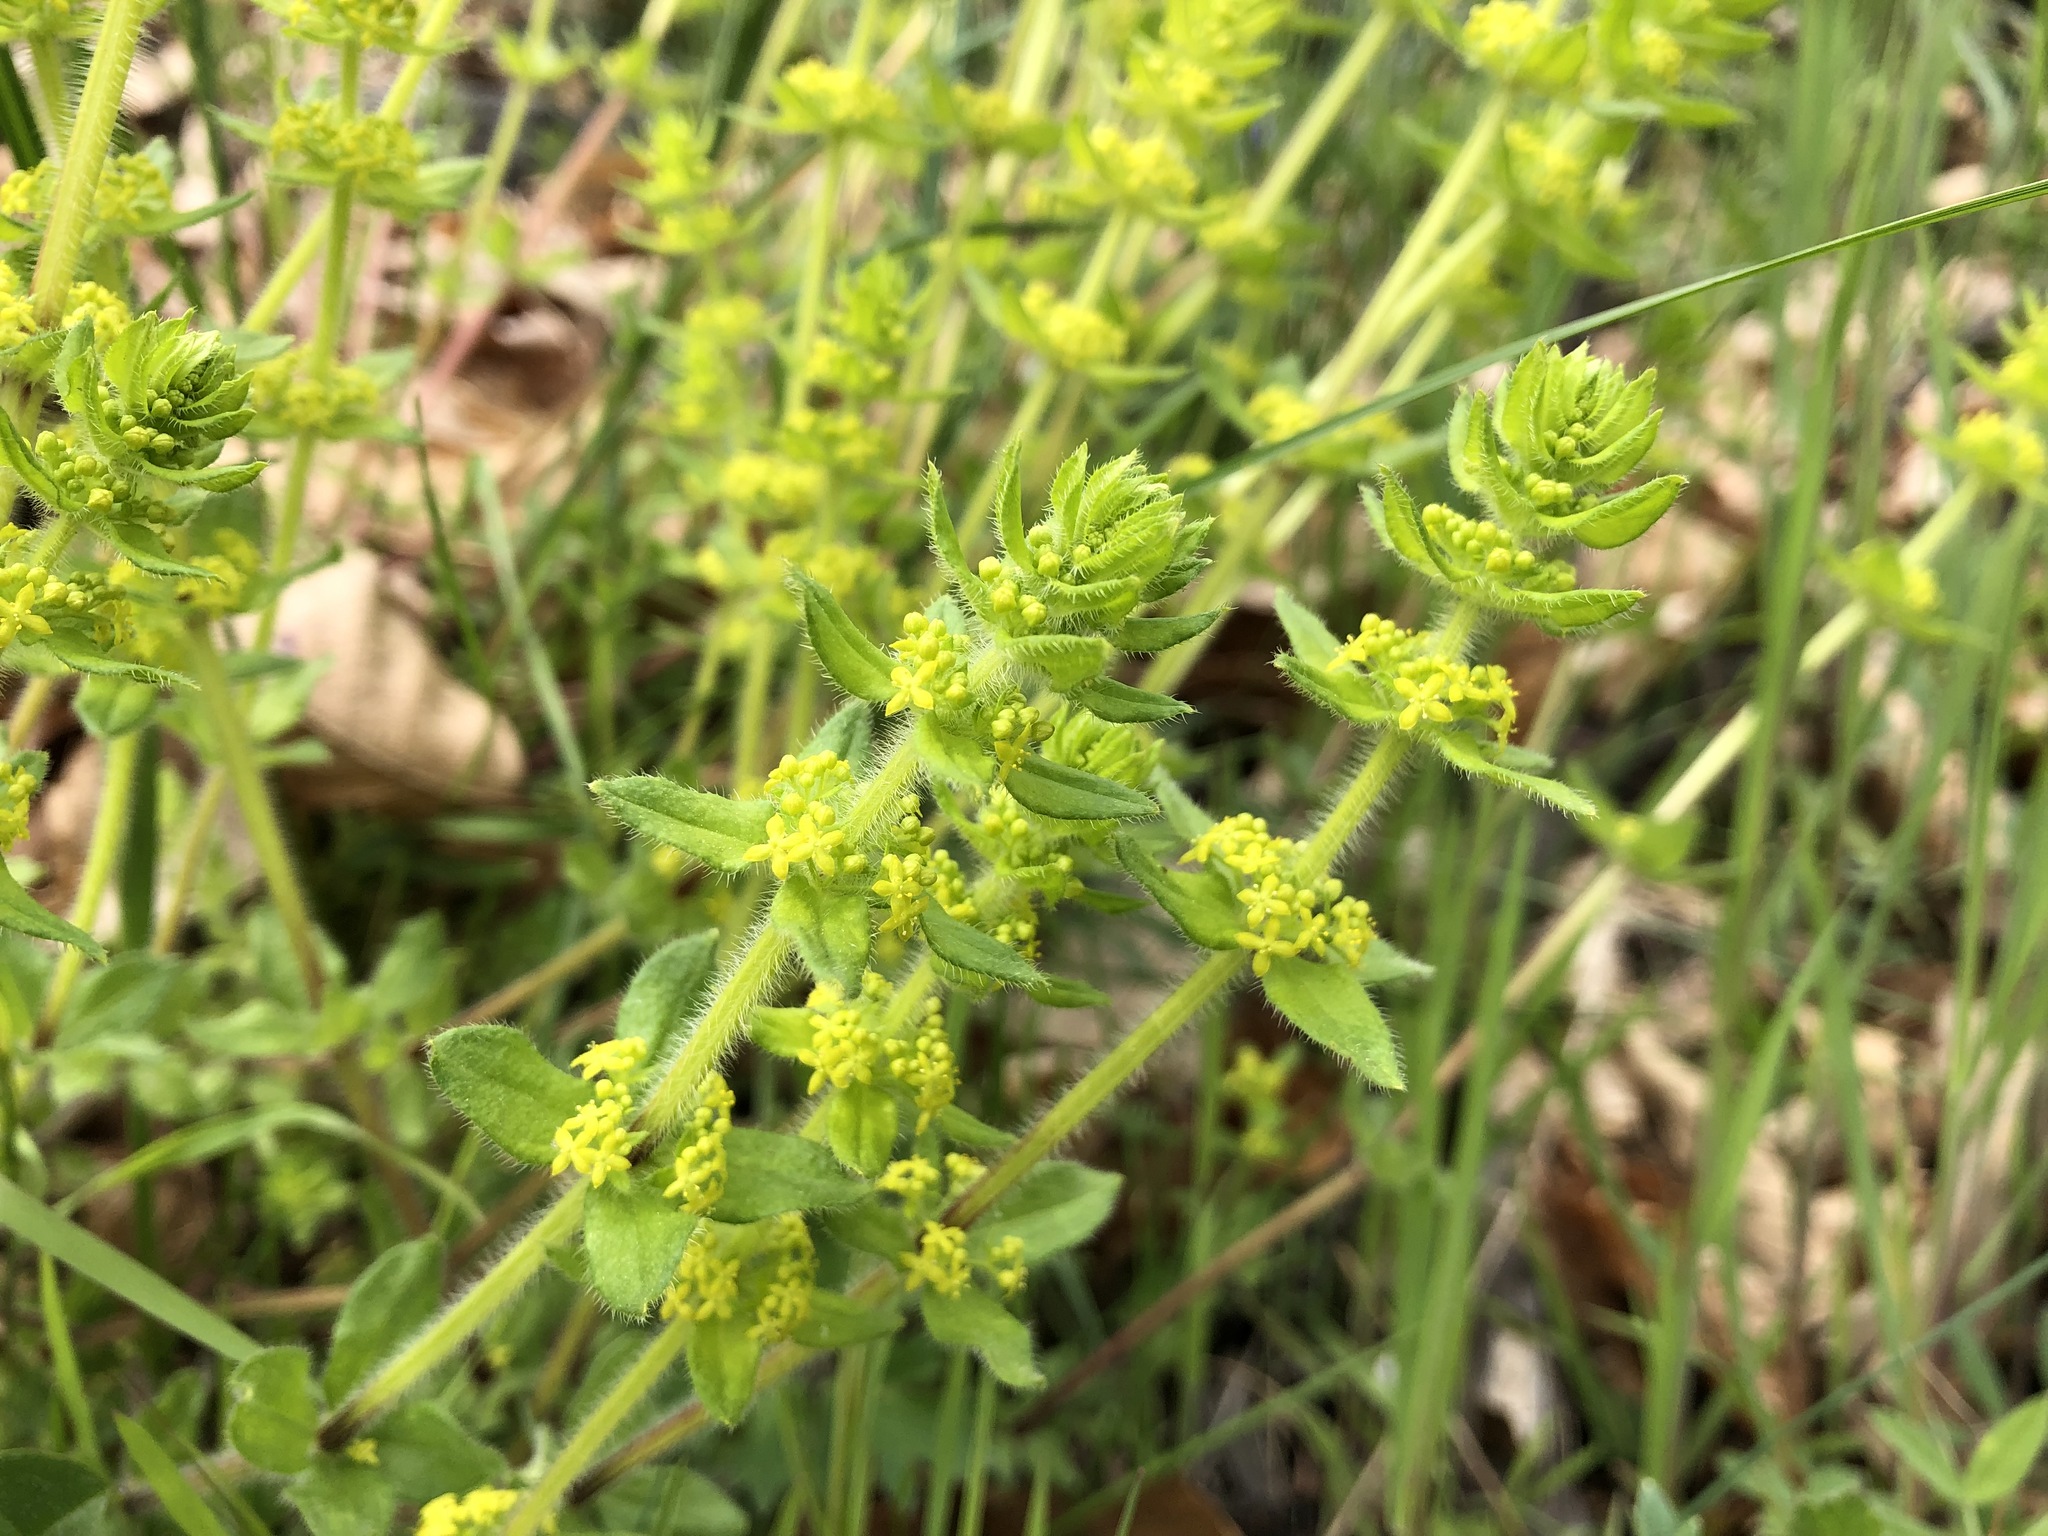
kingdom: Plantae
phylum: Tracheophyta
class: Magnoliopsida
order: Gentianales
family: Rubiaceae
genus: Cruciata
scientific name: Cruciata laevipes
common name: Crosswort
